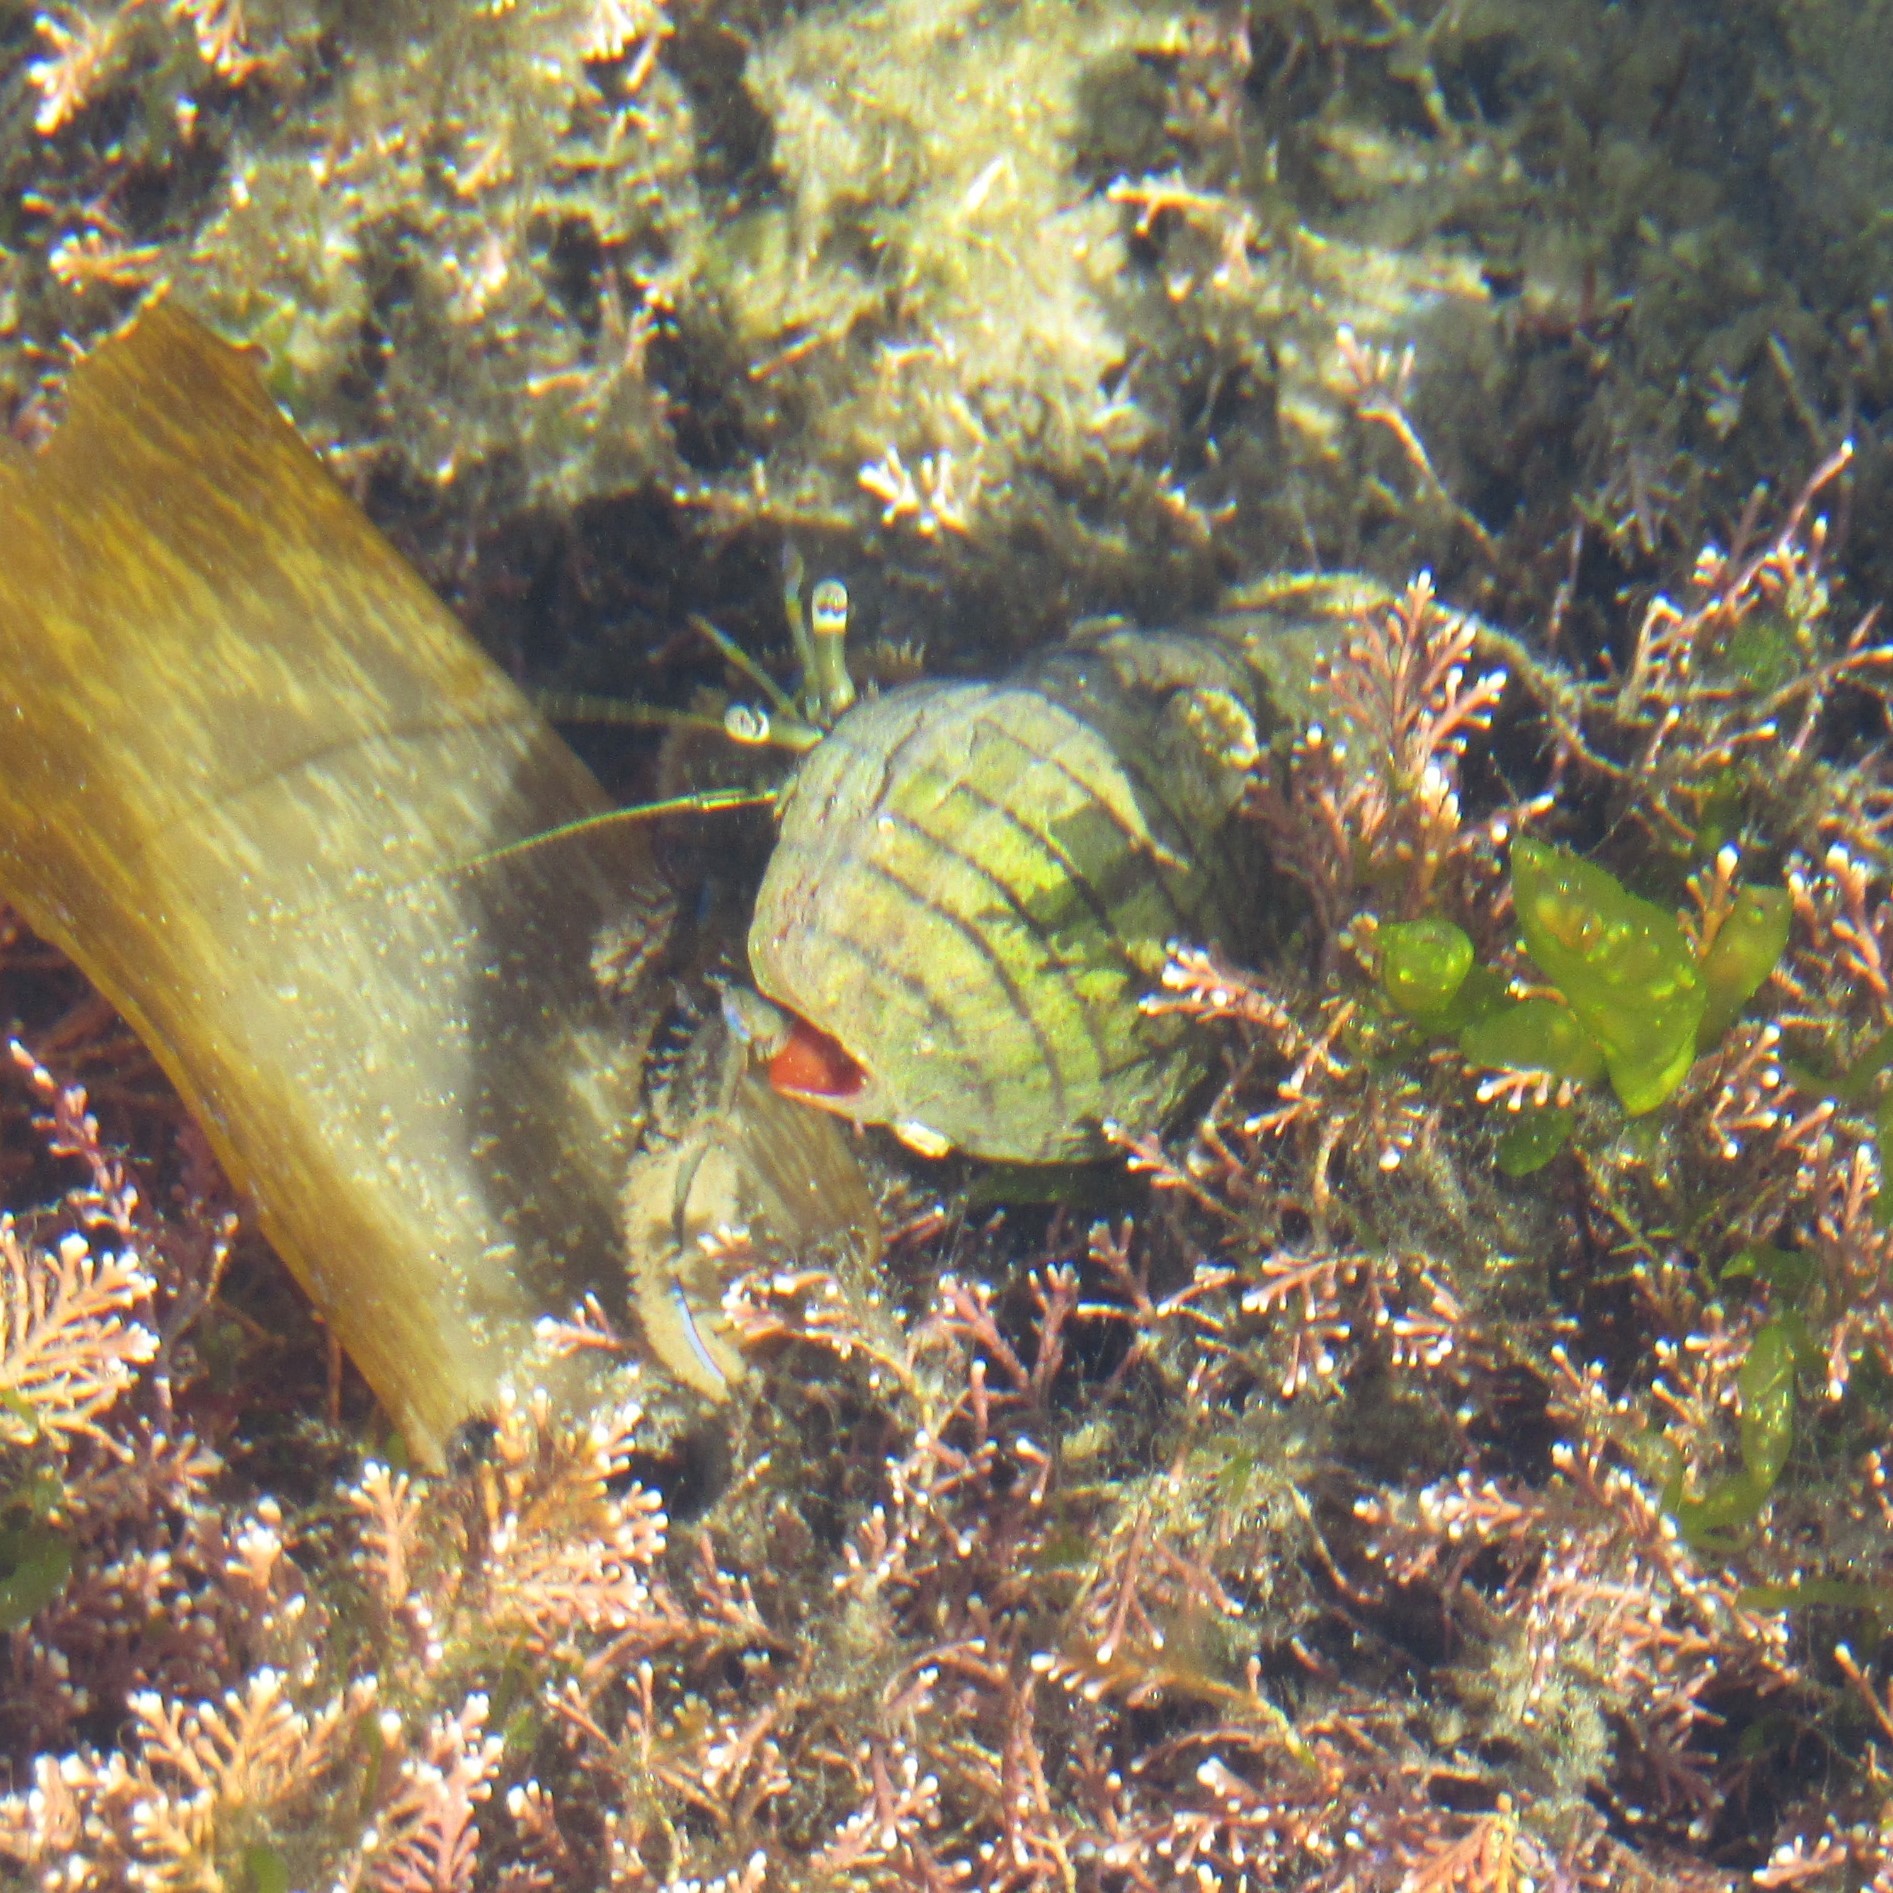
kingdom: Animalia
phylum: Arthropoda
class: Malacostraca
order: Decapoda
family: Paguridae
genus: Pagurus
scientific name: Pagurus novizealandiae
